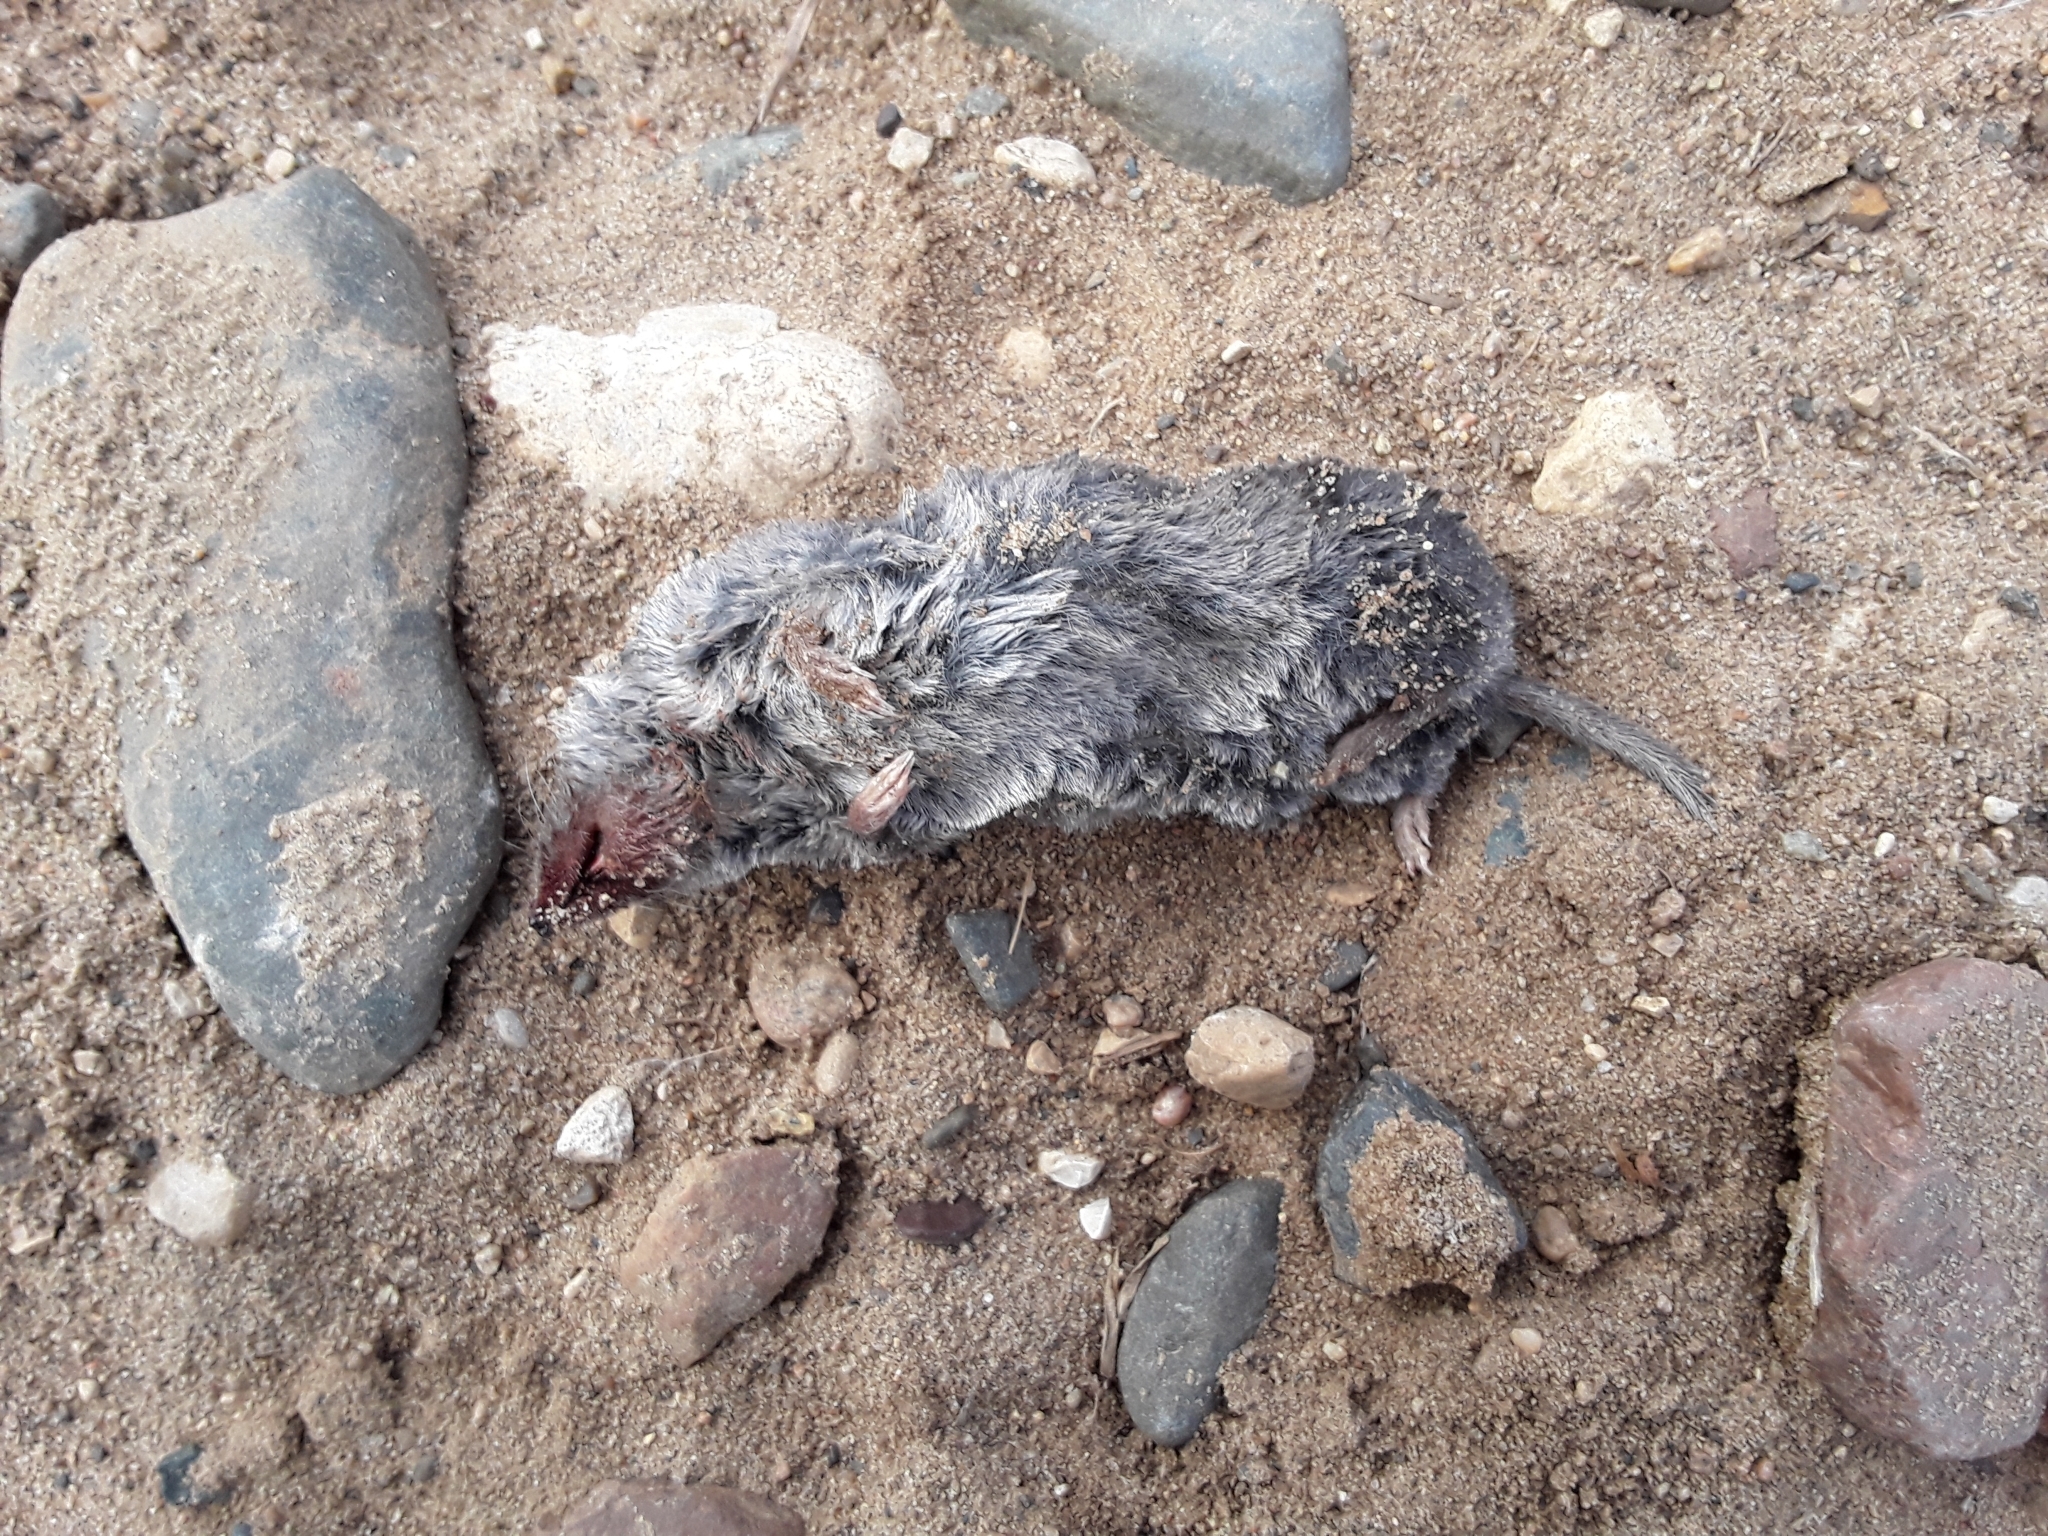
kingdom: Animalia
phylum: Chordata
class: Mammalia
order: Soricomorpha
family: Soricidae
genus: Blarina
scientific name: Blarina brevicauda
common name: Northern short-tailed shrew
